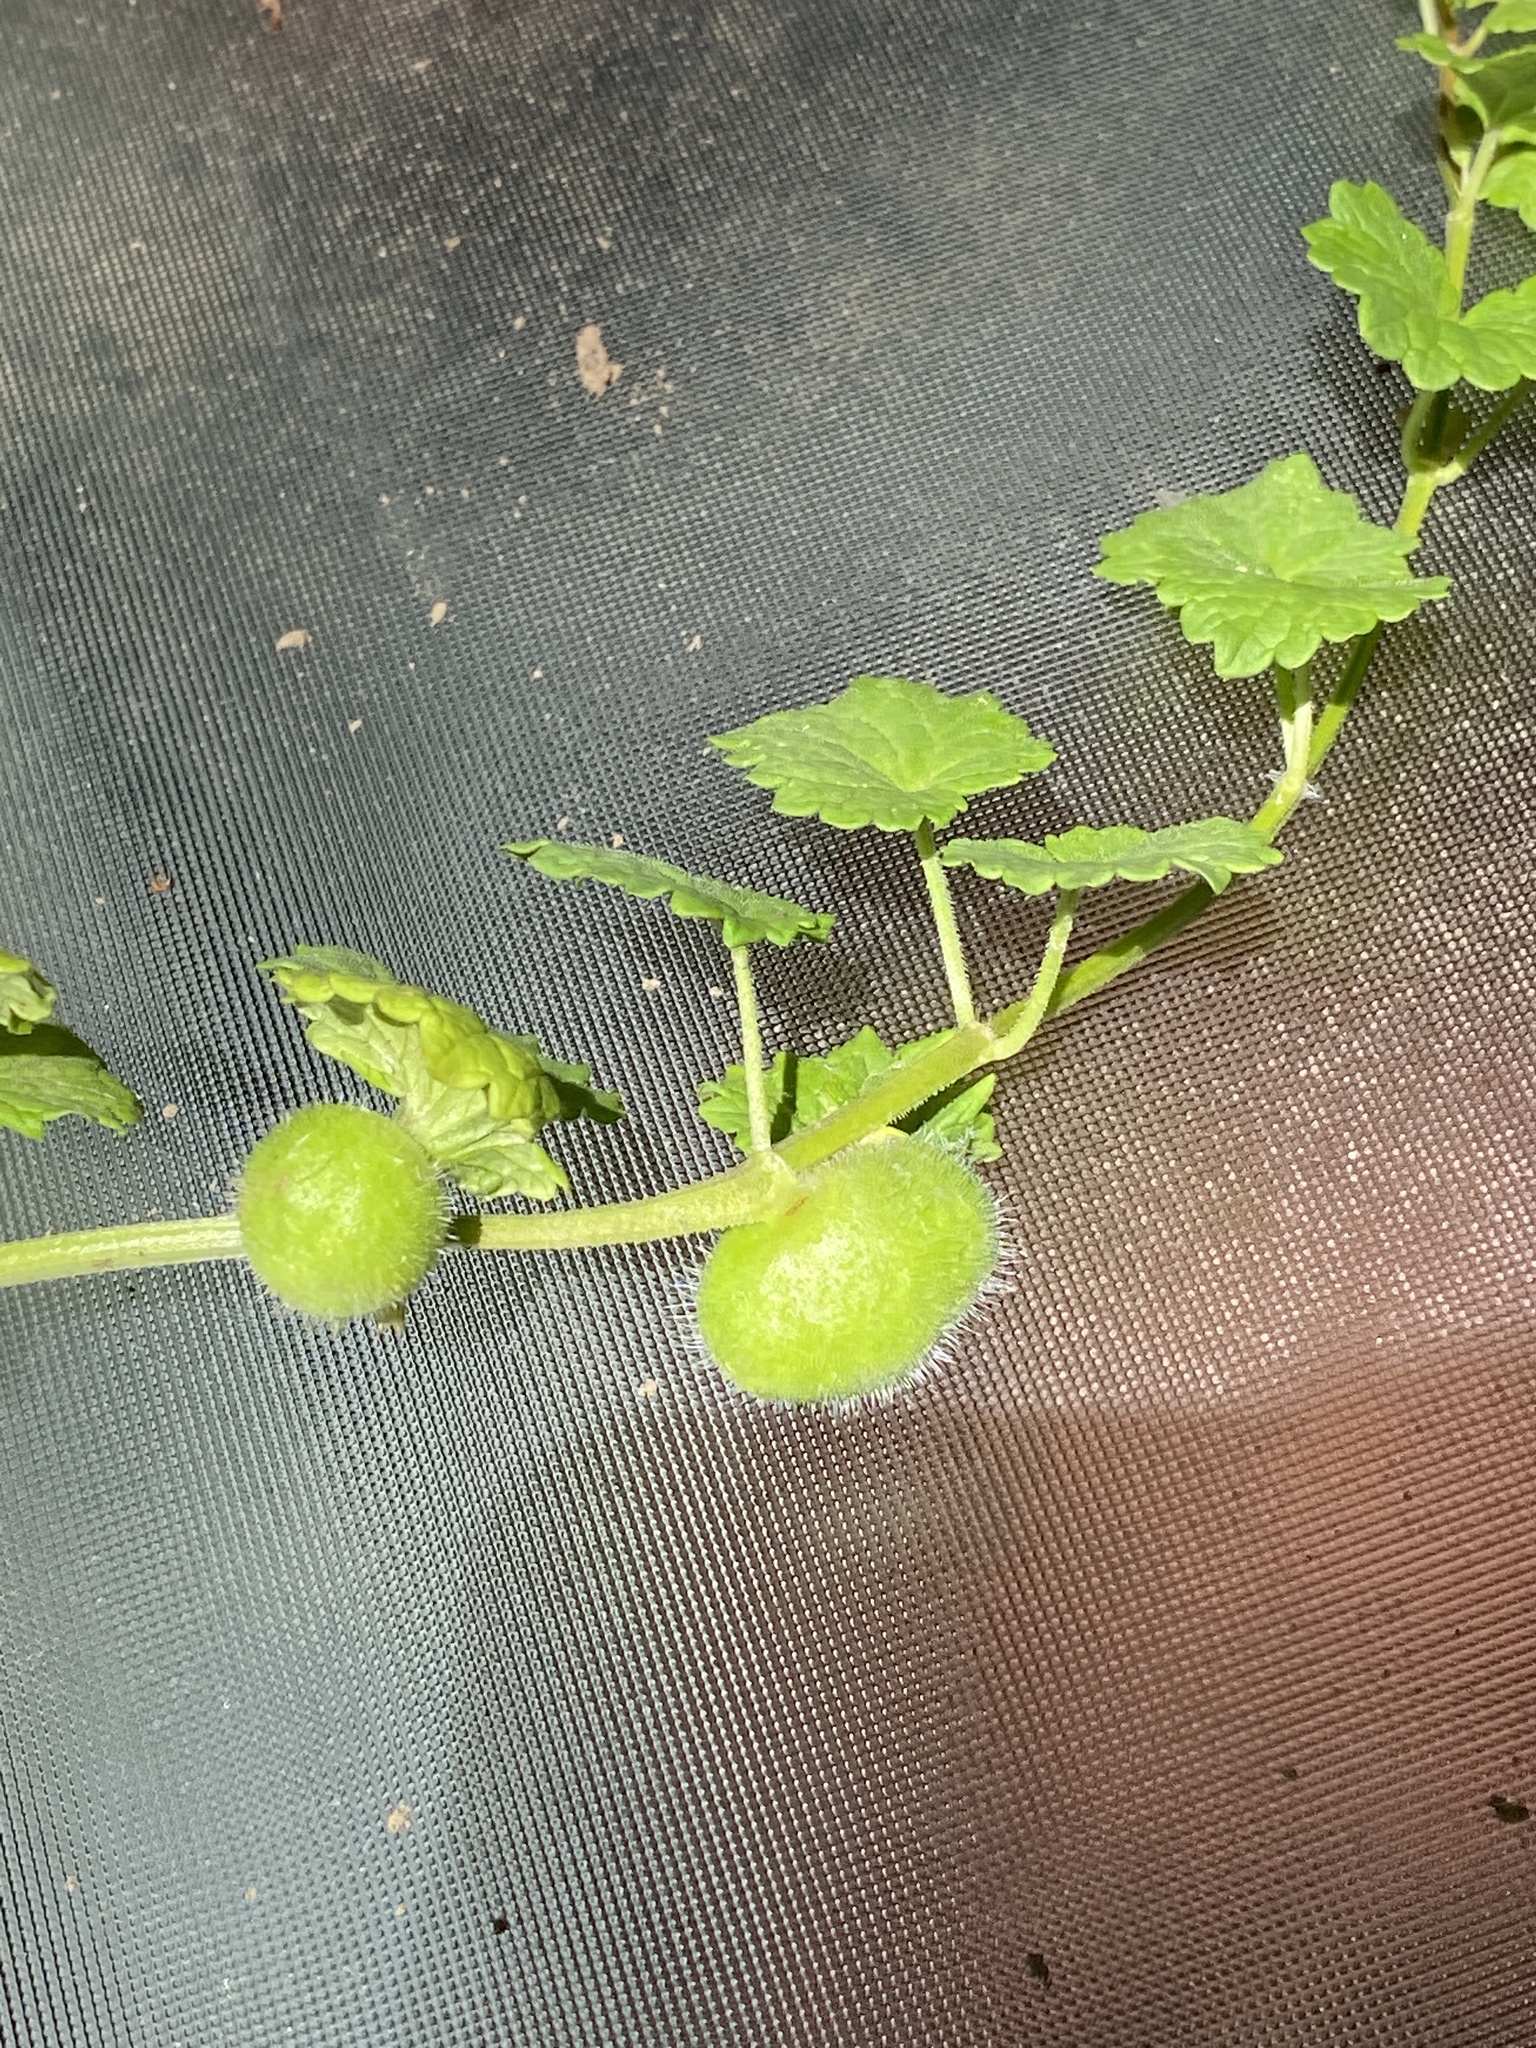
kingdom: Animalia
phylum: Arthropoda
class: Insecta
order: Hymenoptera
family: Cynipidae
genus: Liposthenes
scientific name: Liposthenes glechomae
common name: Gall wasp
